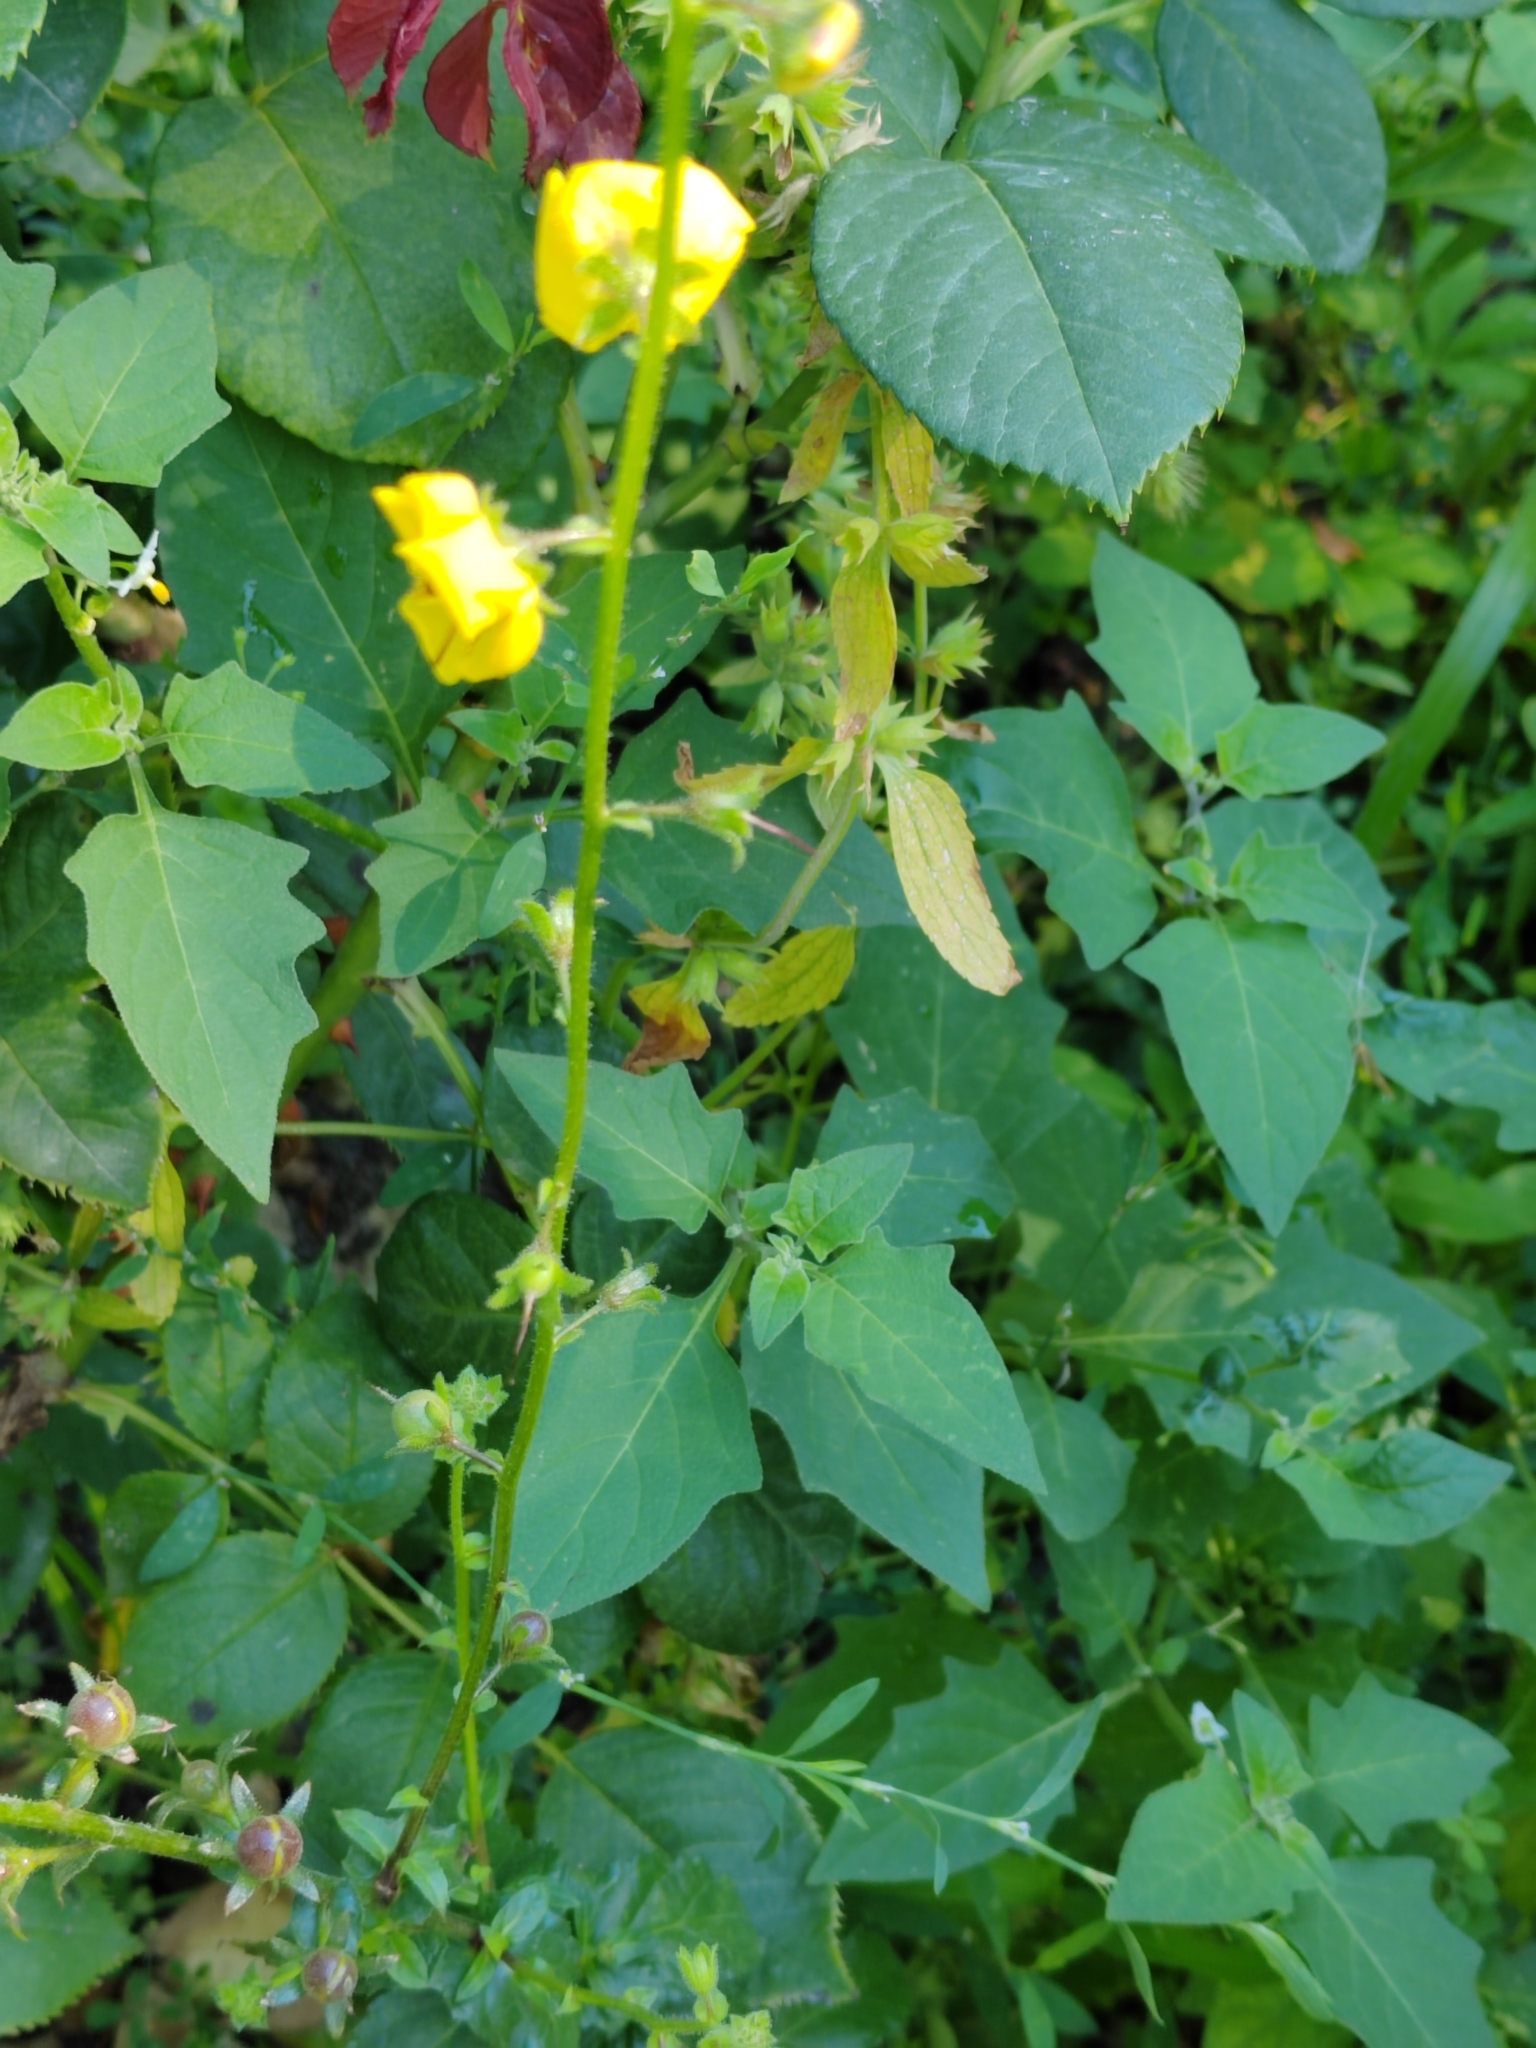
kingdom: Plantae
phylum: Tracheophyta
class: Magnoliopsida
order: Lamiales
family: Scrophulariaceae
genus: Verbascum
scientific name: Verbascum blattaria
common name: Moth mullein
